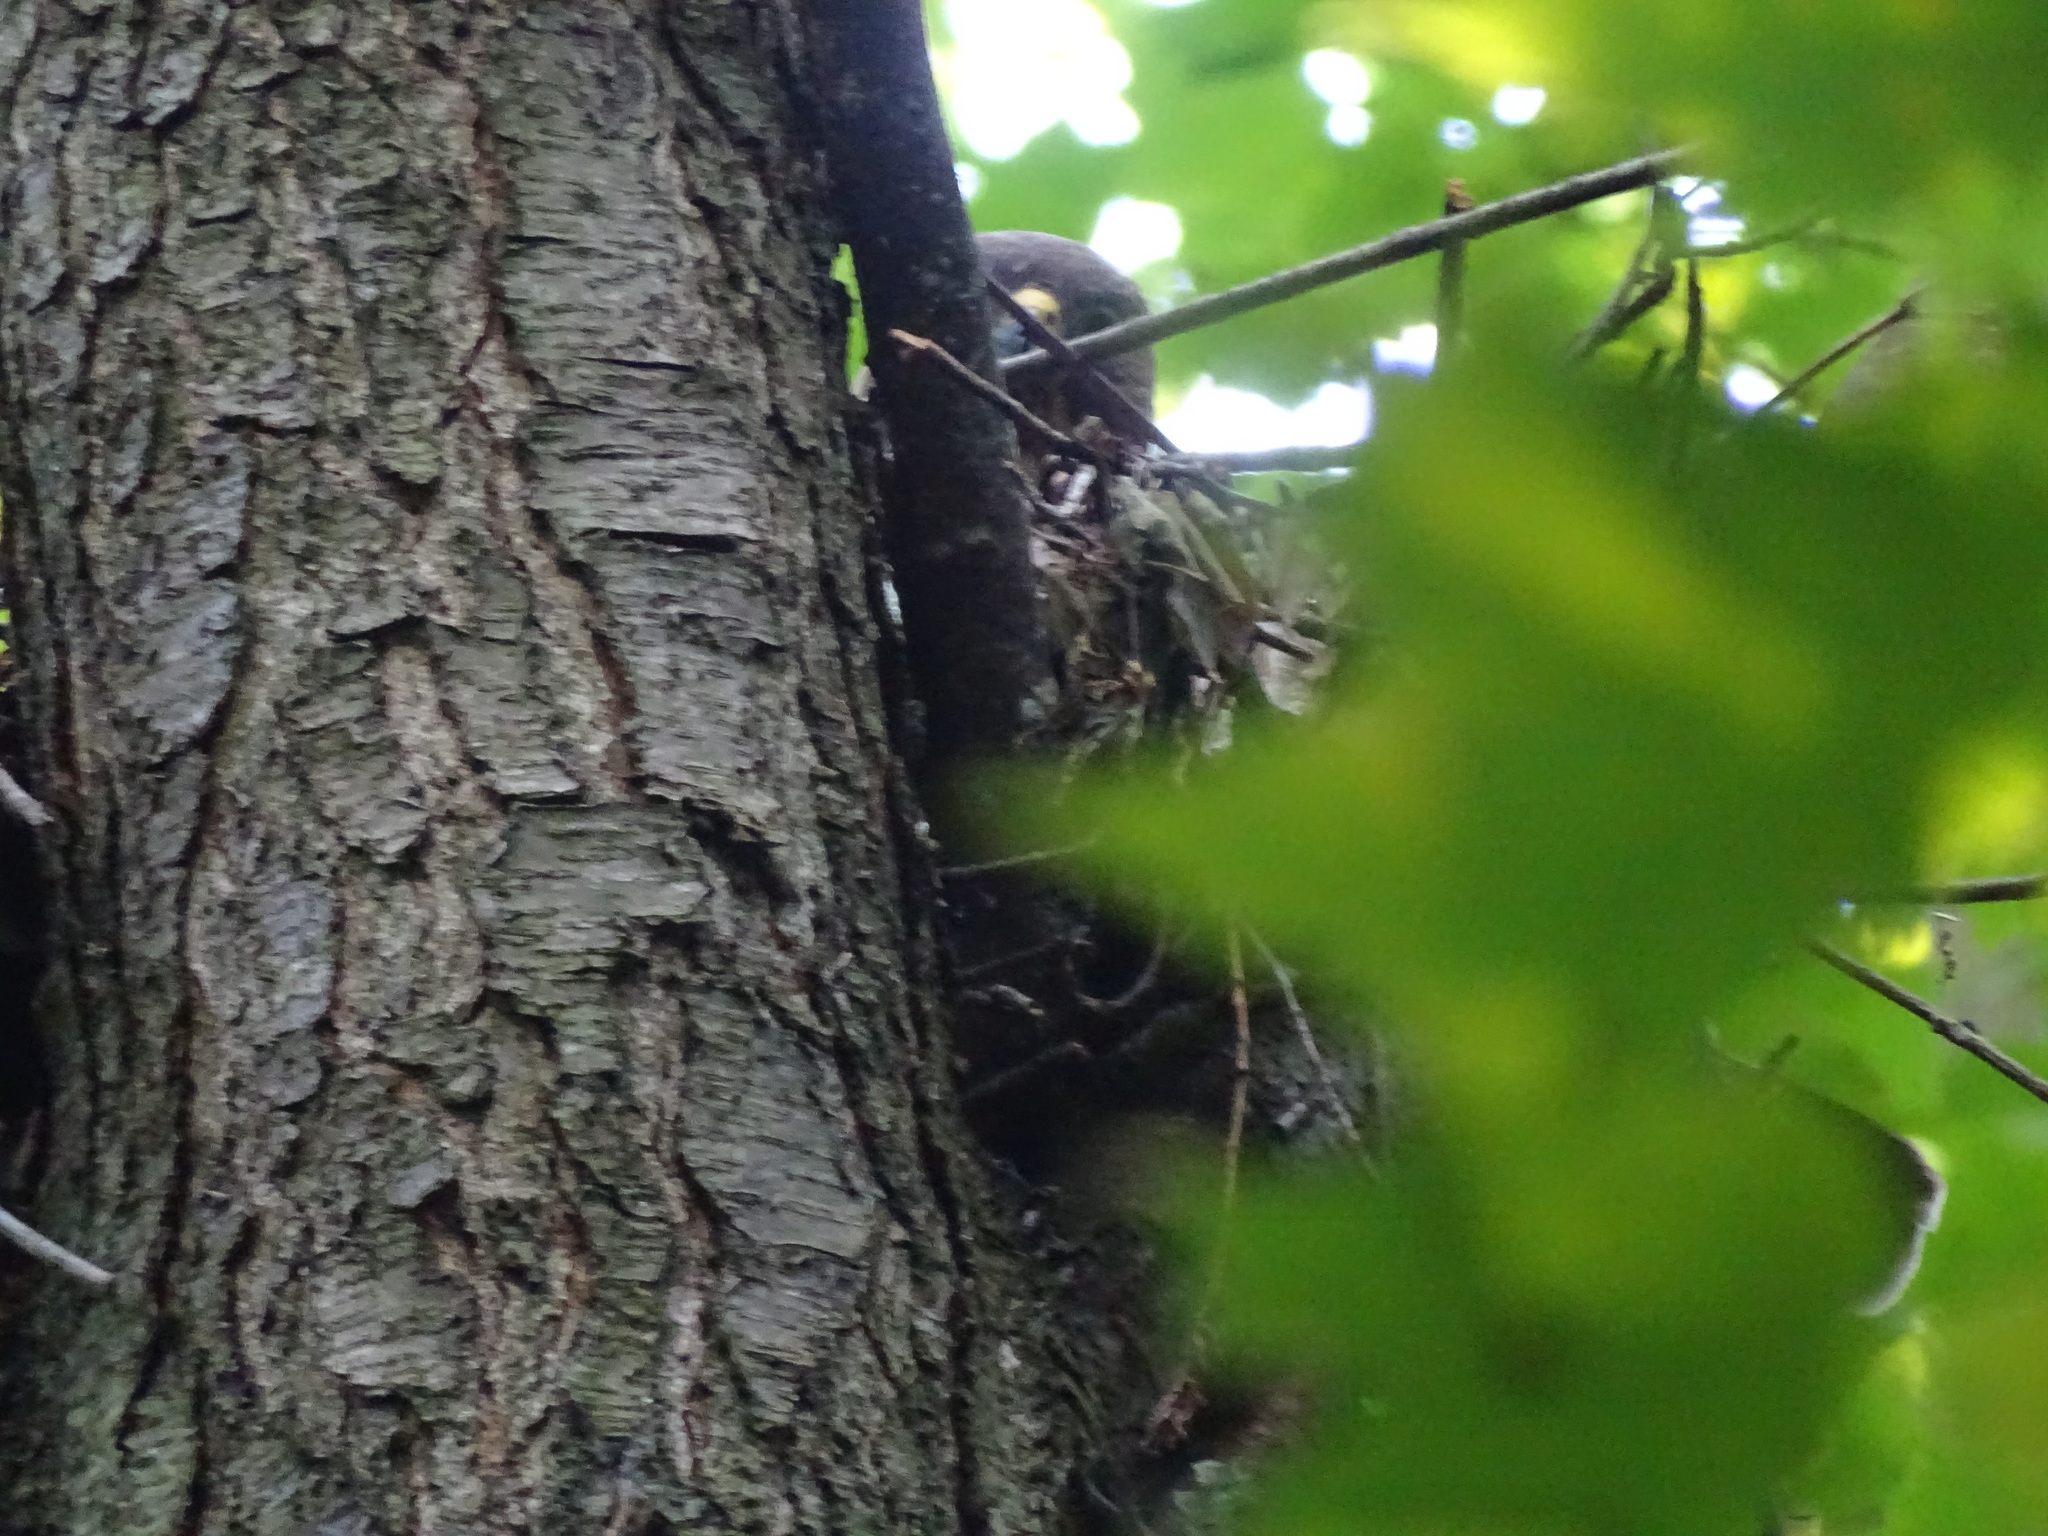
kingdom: Animalia
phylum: Chordata
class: Aves
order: Accipitriformes
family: Accipitridae
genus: Buteo
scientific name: Buteo platypterus
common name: Broad-winged hawk
